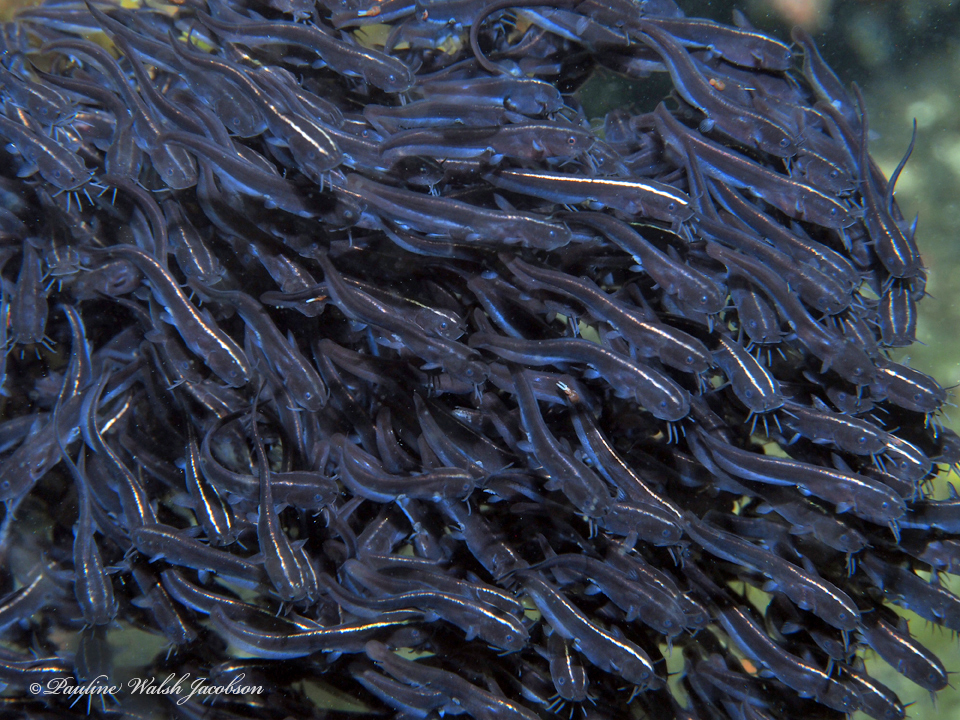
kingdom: Animalia
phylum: Chordata
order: Siluriformes
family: Plotosidae
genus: Plotosus
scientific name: Plotosus lineatus
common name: Striped eel catfish
